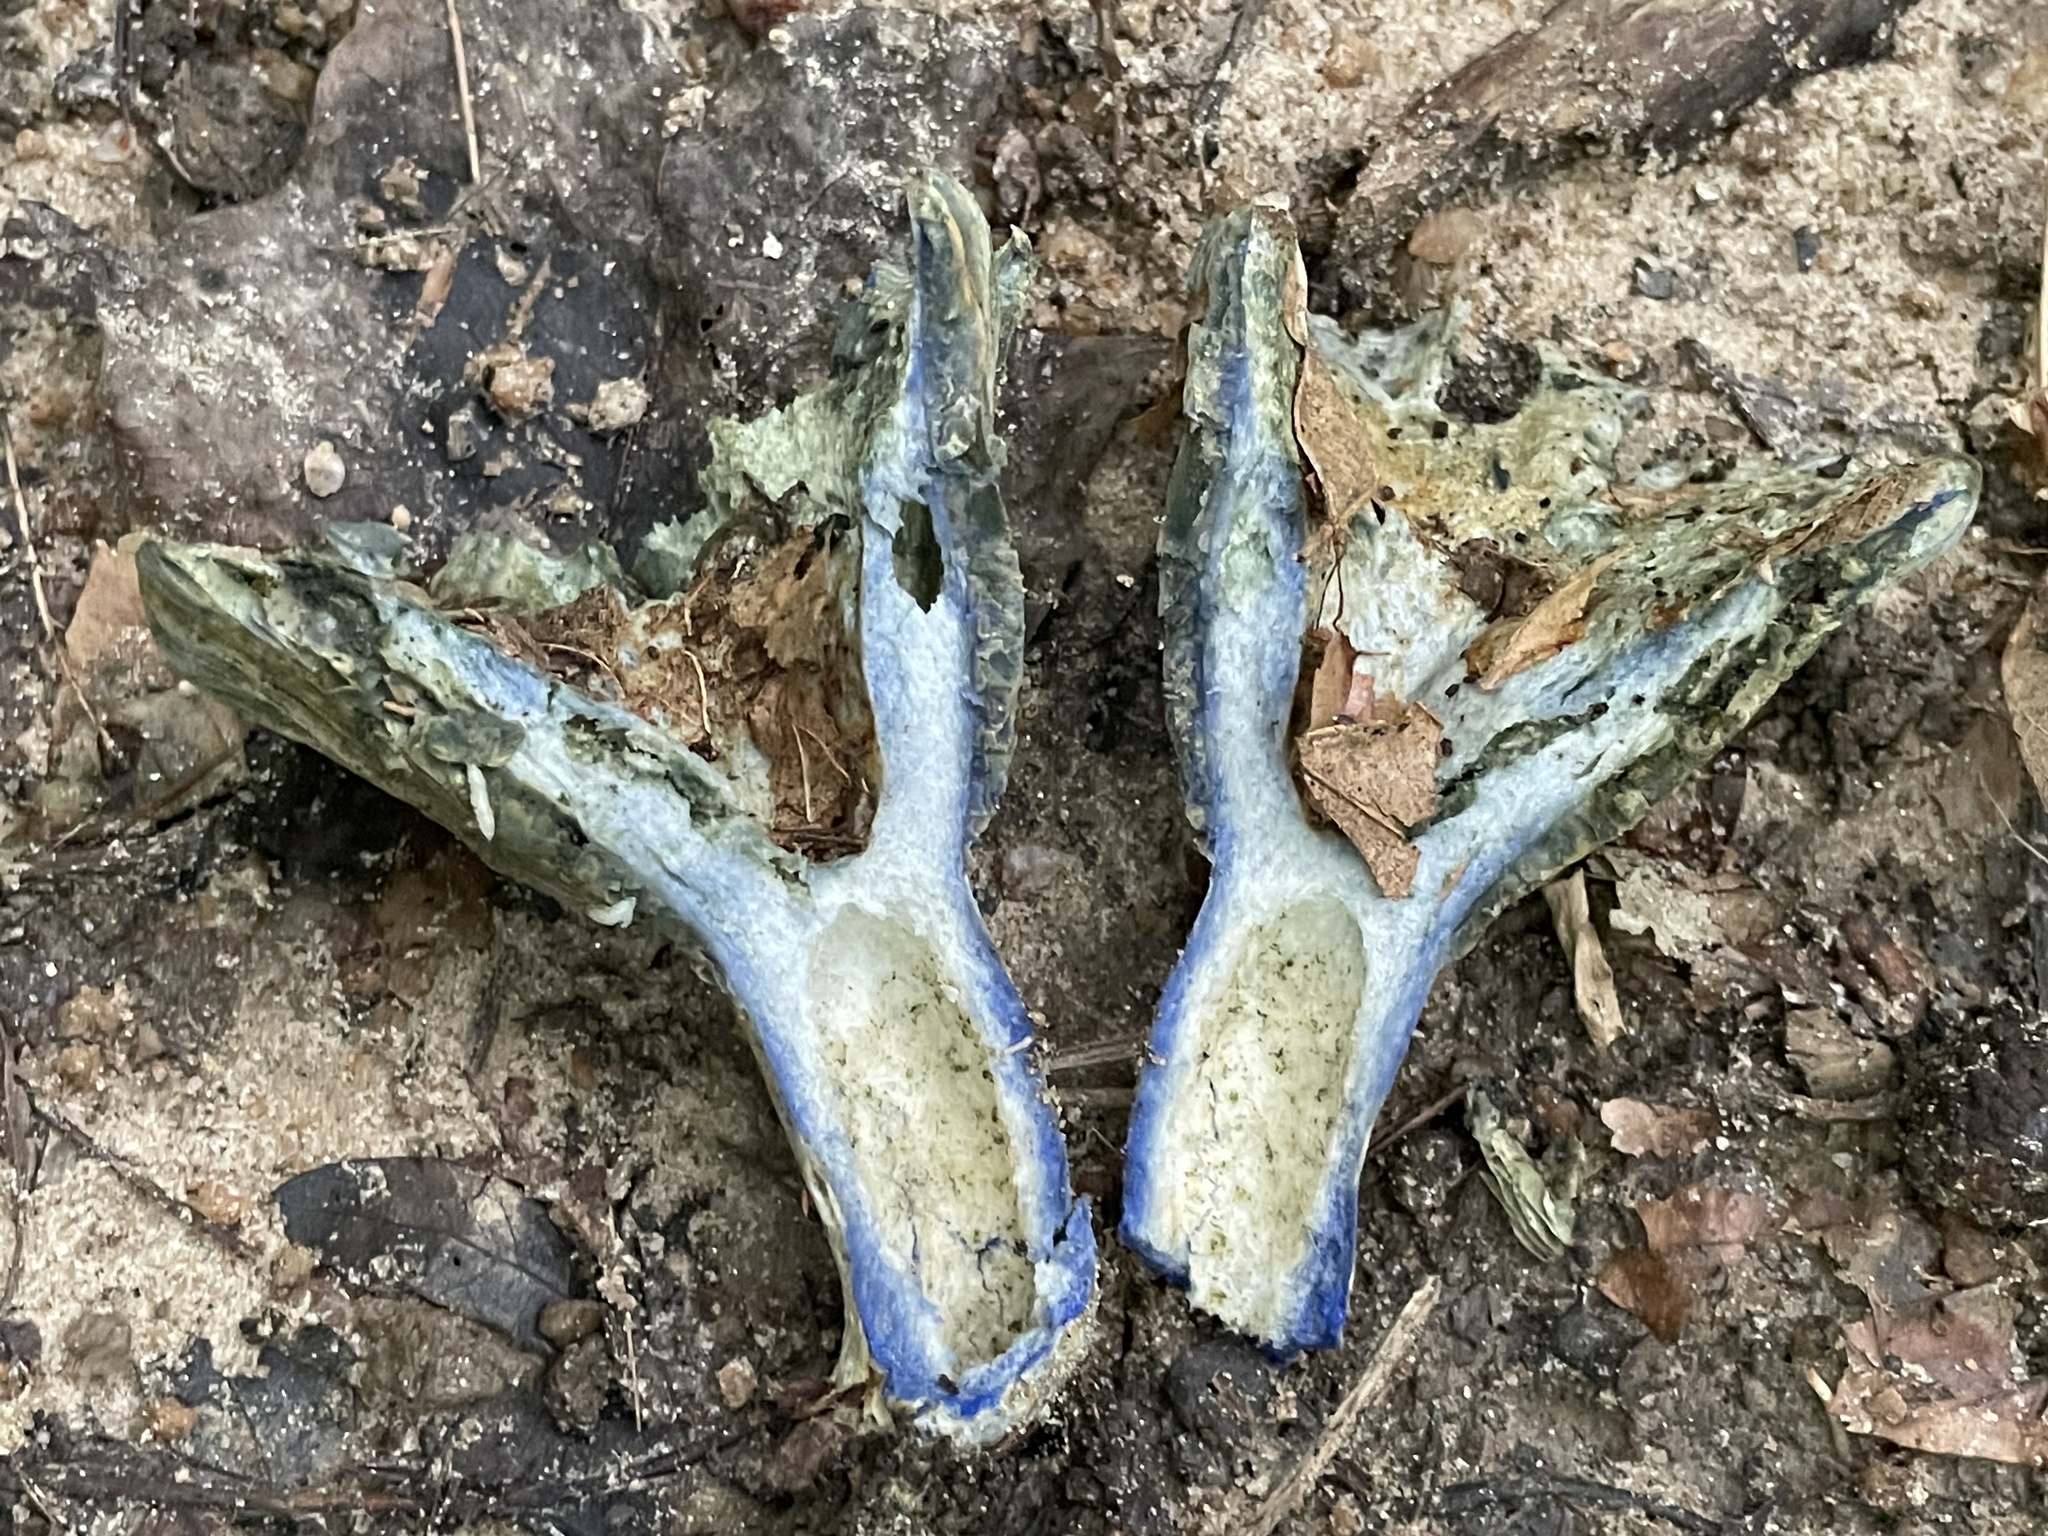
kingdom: Fungi
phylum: Basidiomycota
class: Agaricomycetes
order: Russulales
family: Russulaceae
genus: Lactarius
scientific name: Lactarius indigo
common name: Indigo milk cap
